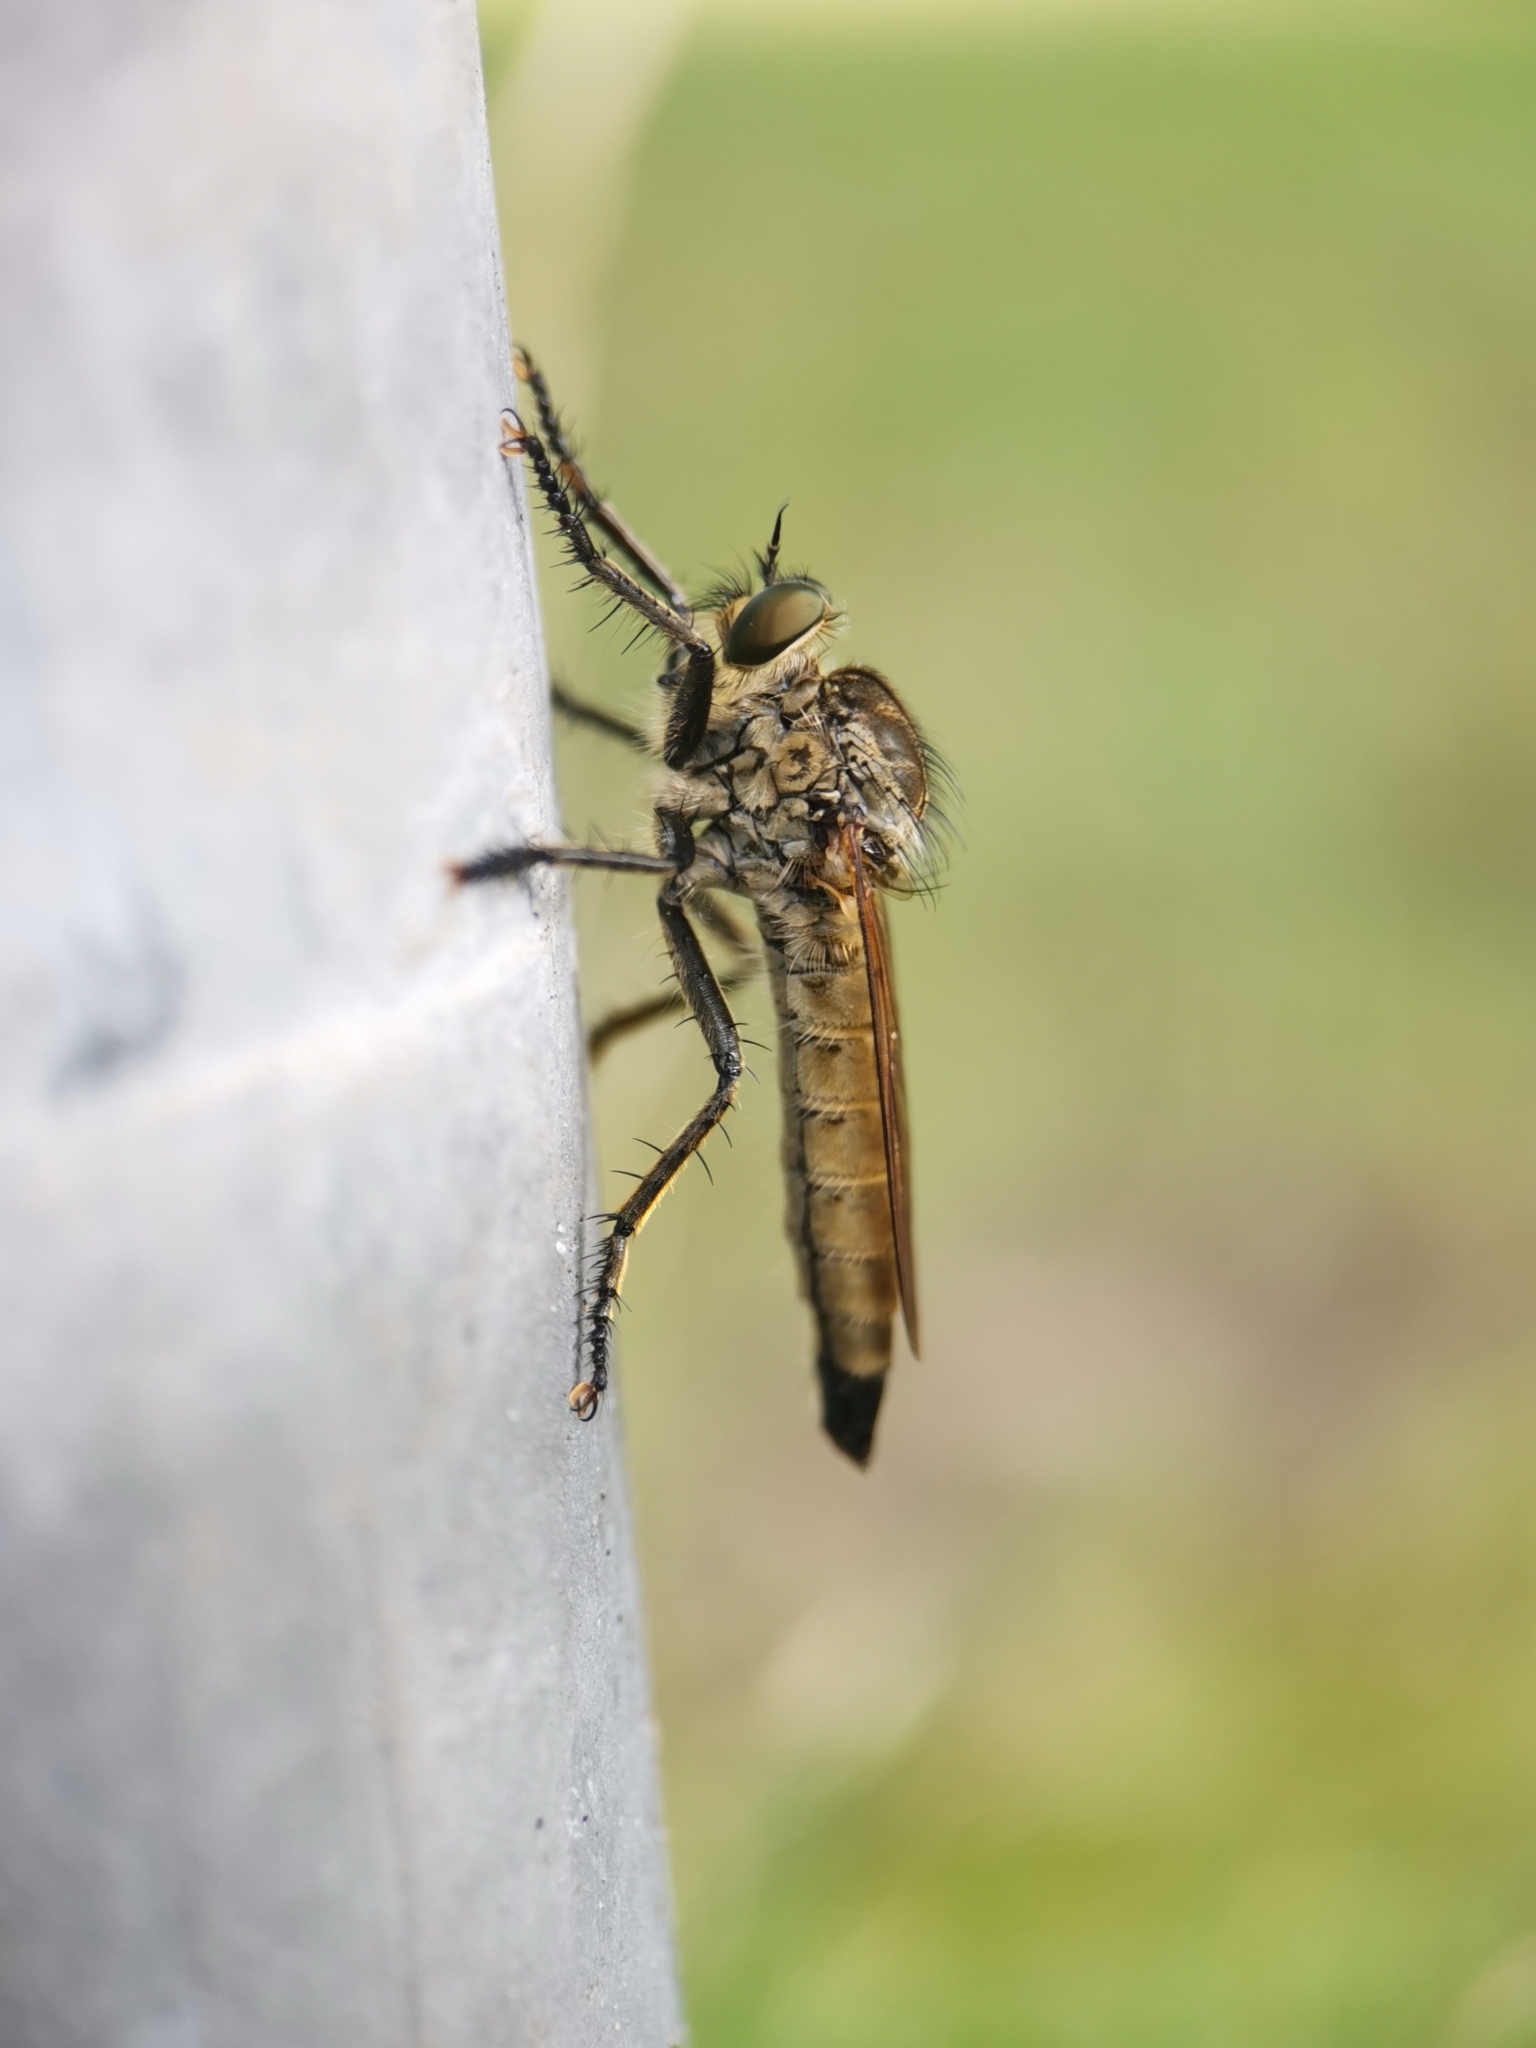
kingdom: Animalia
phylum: Arthropoda
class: Insecta
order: Diptera
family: Asilidae
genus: Eutolmus
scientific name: Eutolmus rufibarbis
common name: Golden-tabbed robberfly
